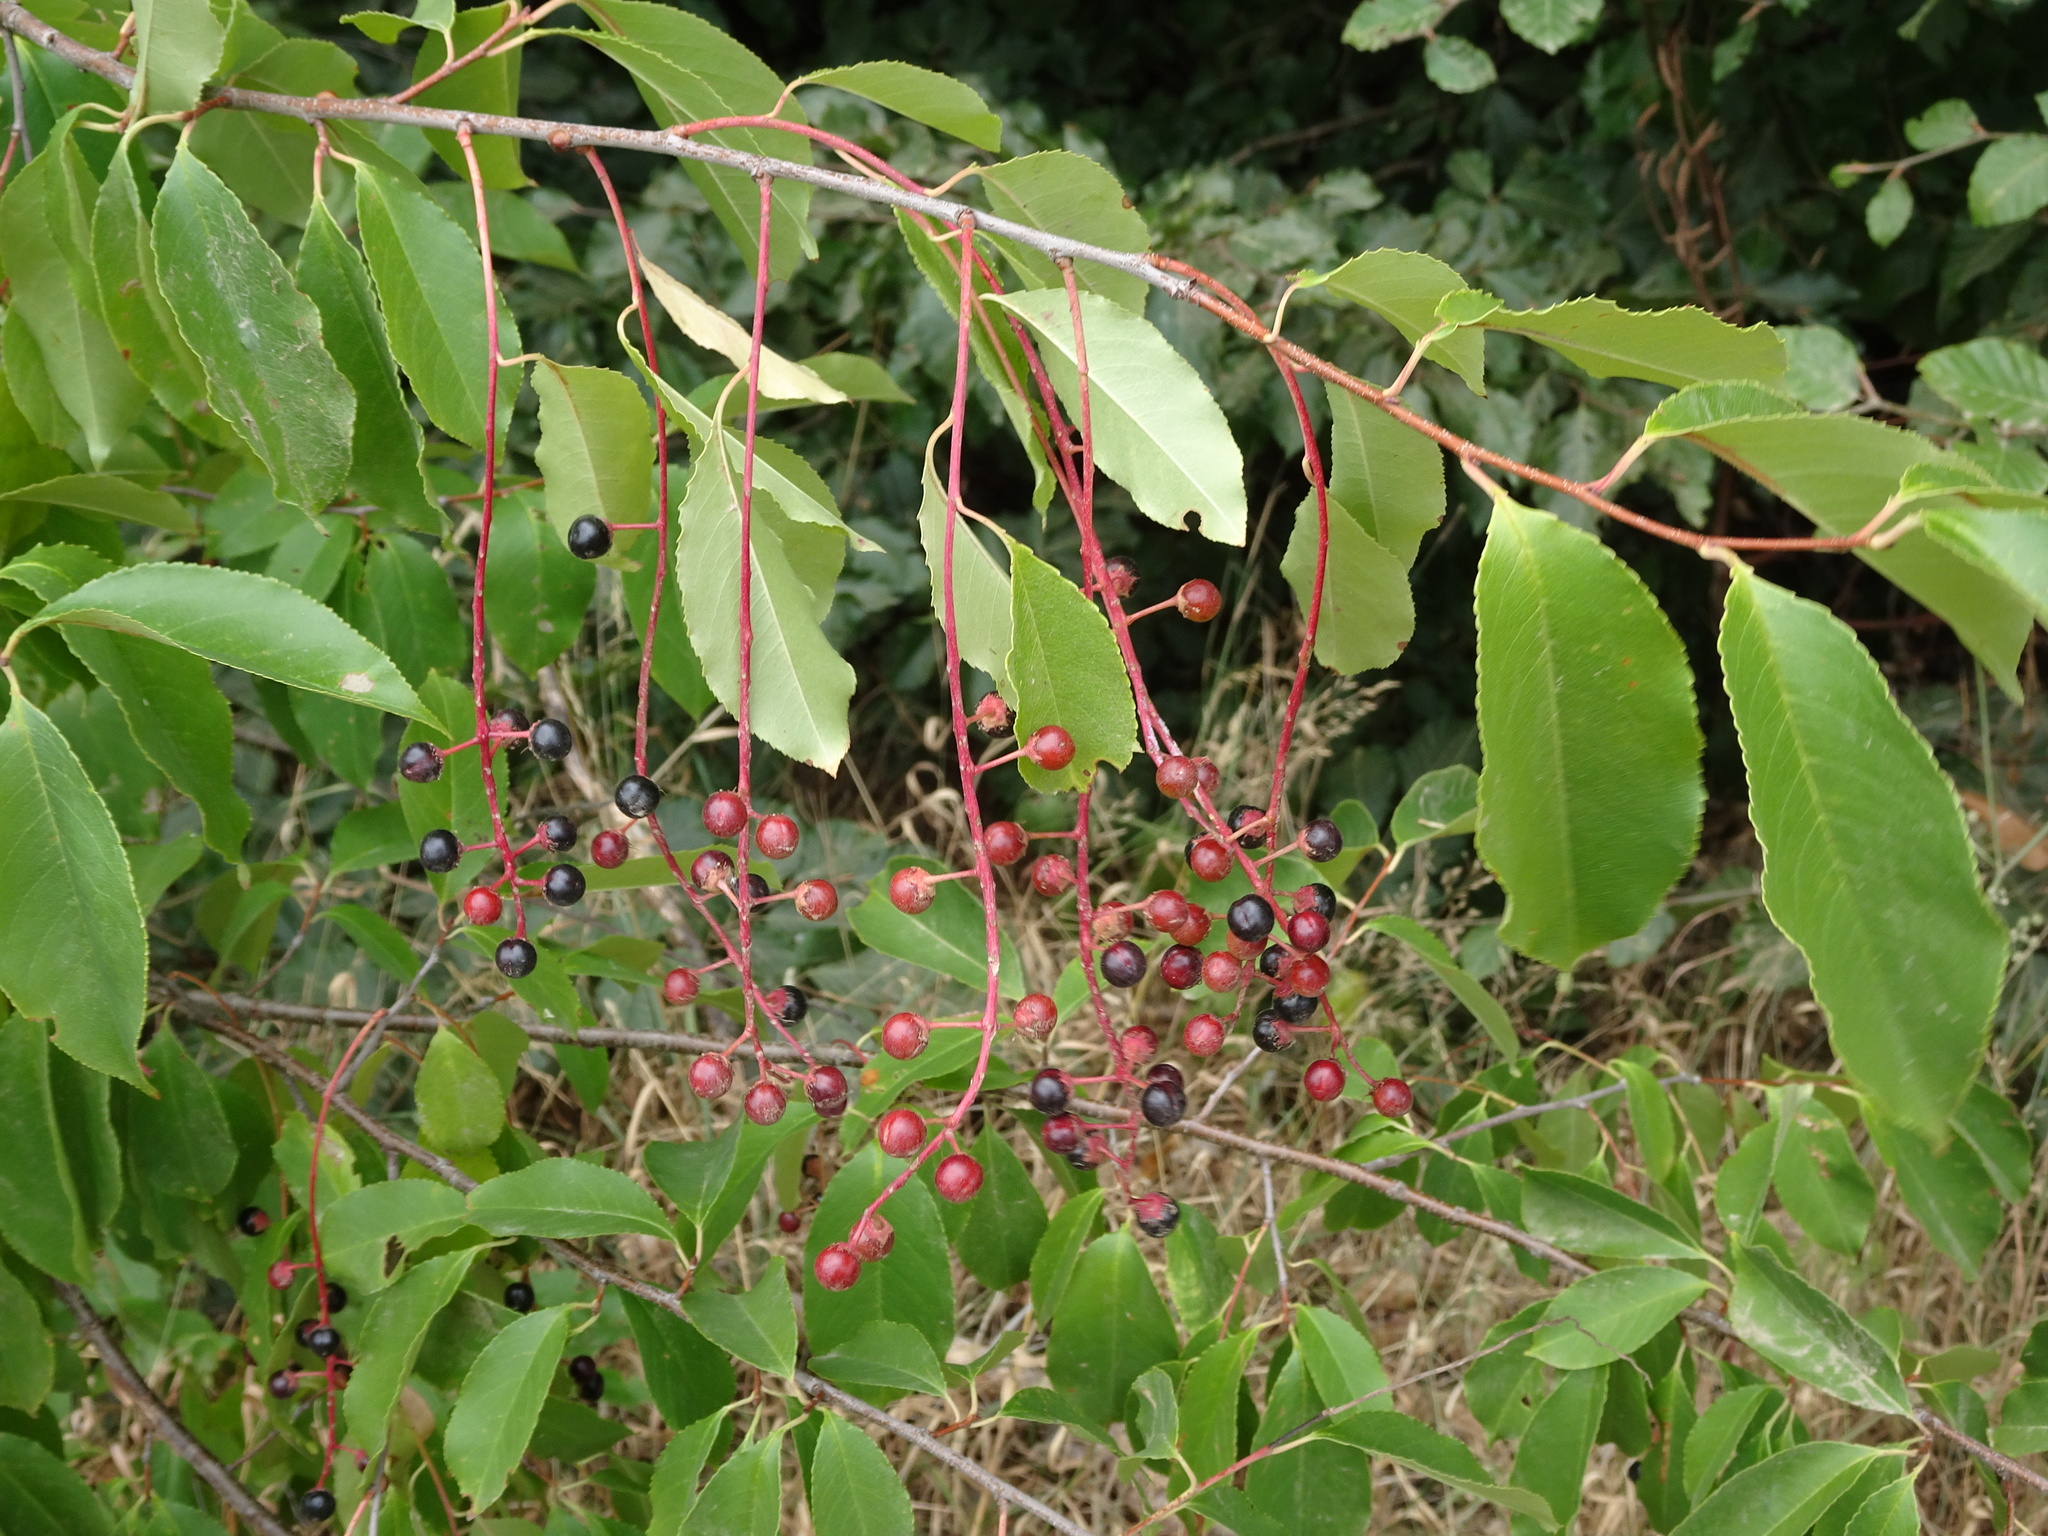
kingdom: Plantae
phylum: Tracheophyta
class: Magnoliopsida
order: Rosales
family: Rosaceae
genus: Prunus
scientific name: Prunus padus
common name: Bird cherry
